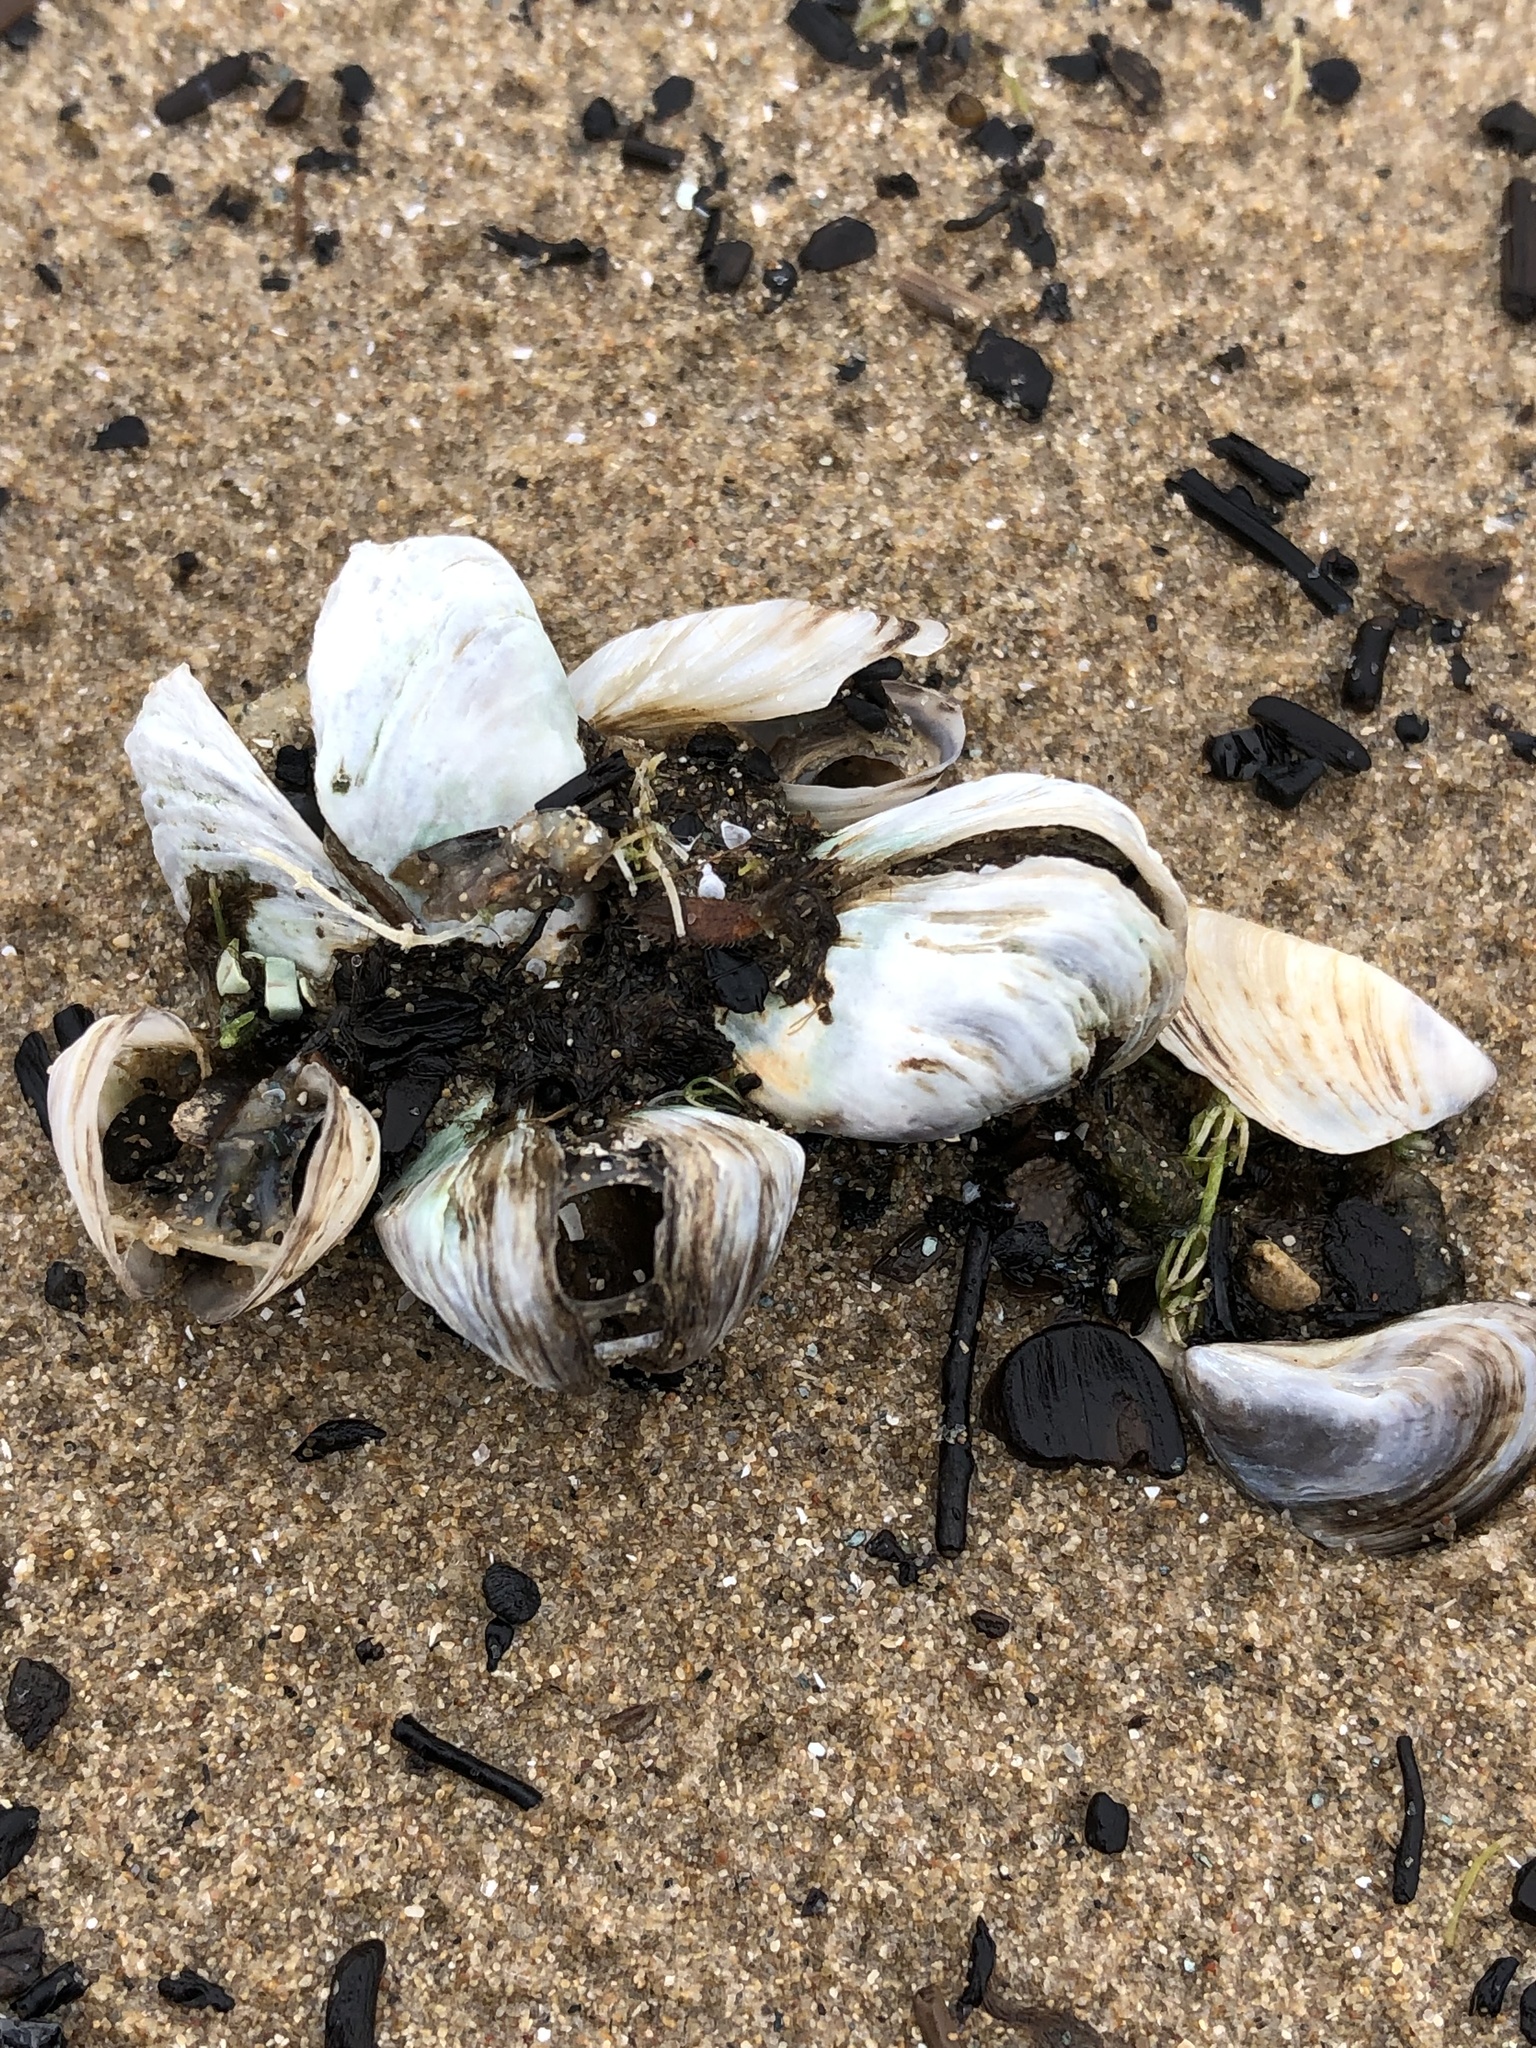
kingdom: Animalia
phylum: Mollusca
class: Bivalvia
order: Myida
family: Dreissenidae
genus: Dreissena
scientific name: Dreissena polymorpha
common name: Zebra mussel
